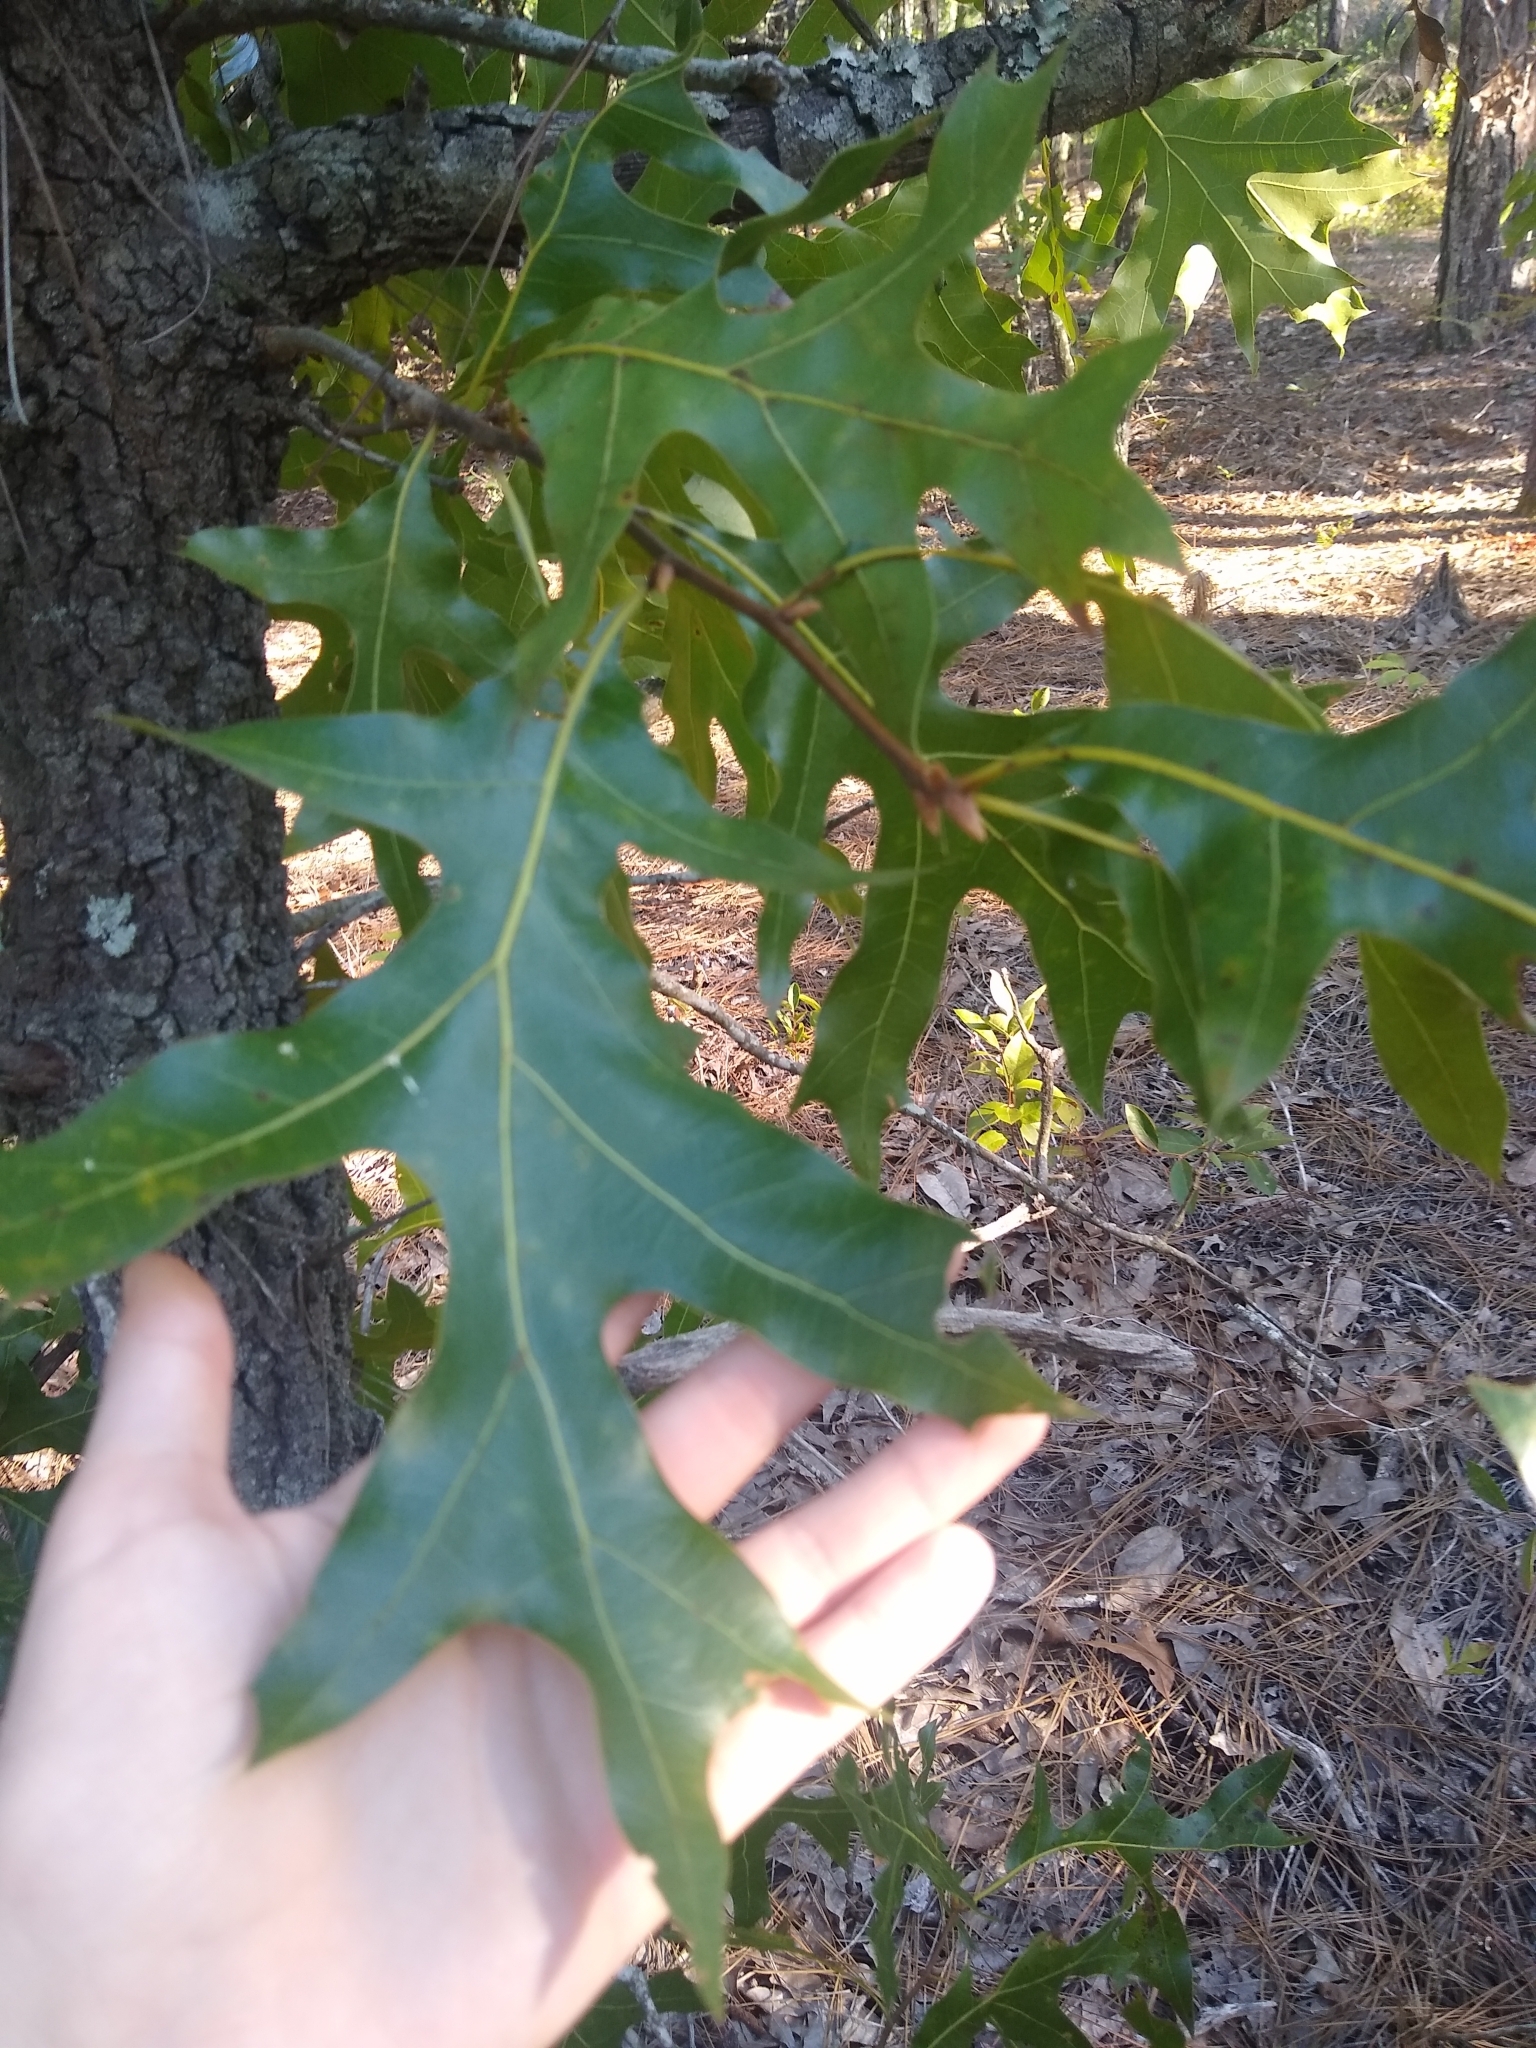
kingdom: Plantae
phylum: Tracheophyta
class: Magnoliopsida
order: Fagales
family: Fagaceae
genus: Quercus
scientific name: Quercus laevis
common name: Turkey oak
